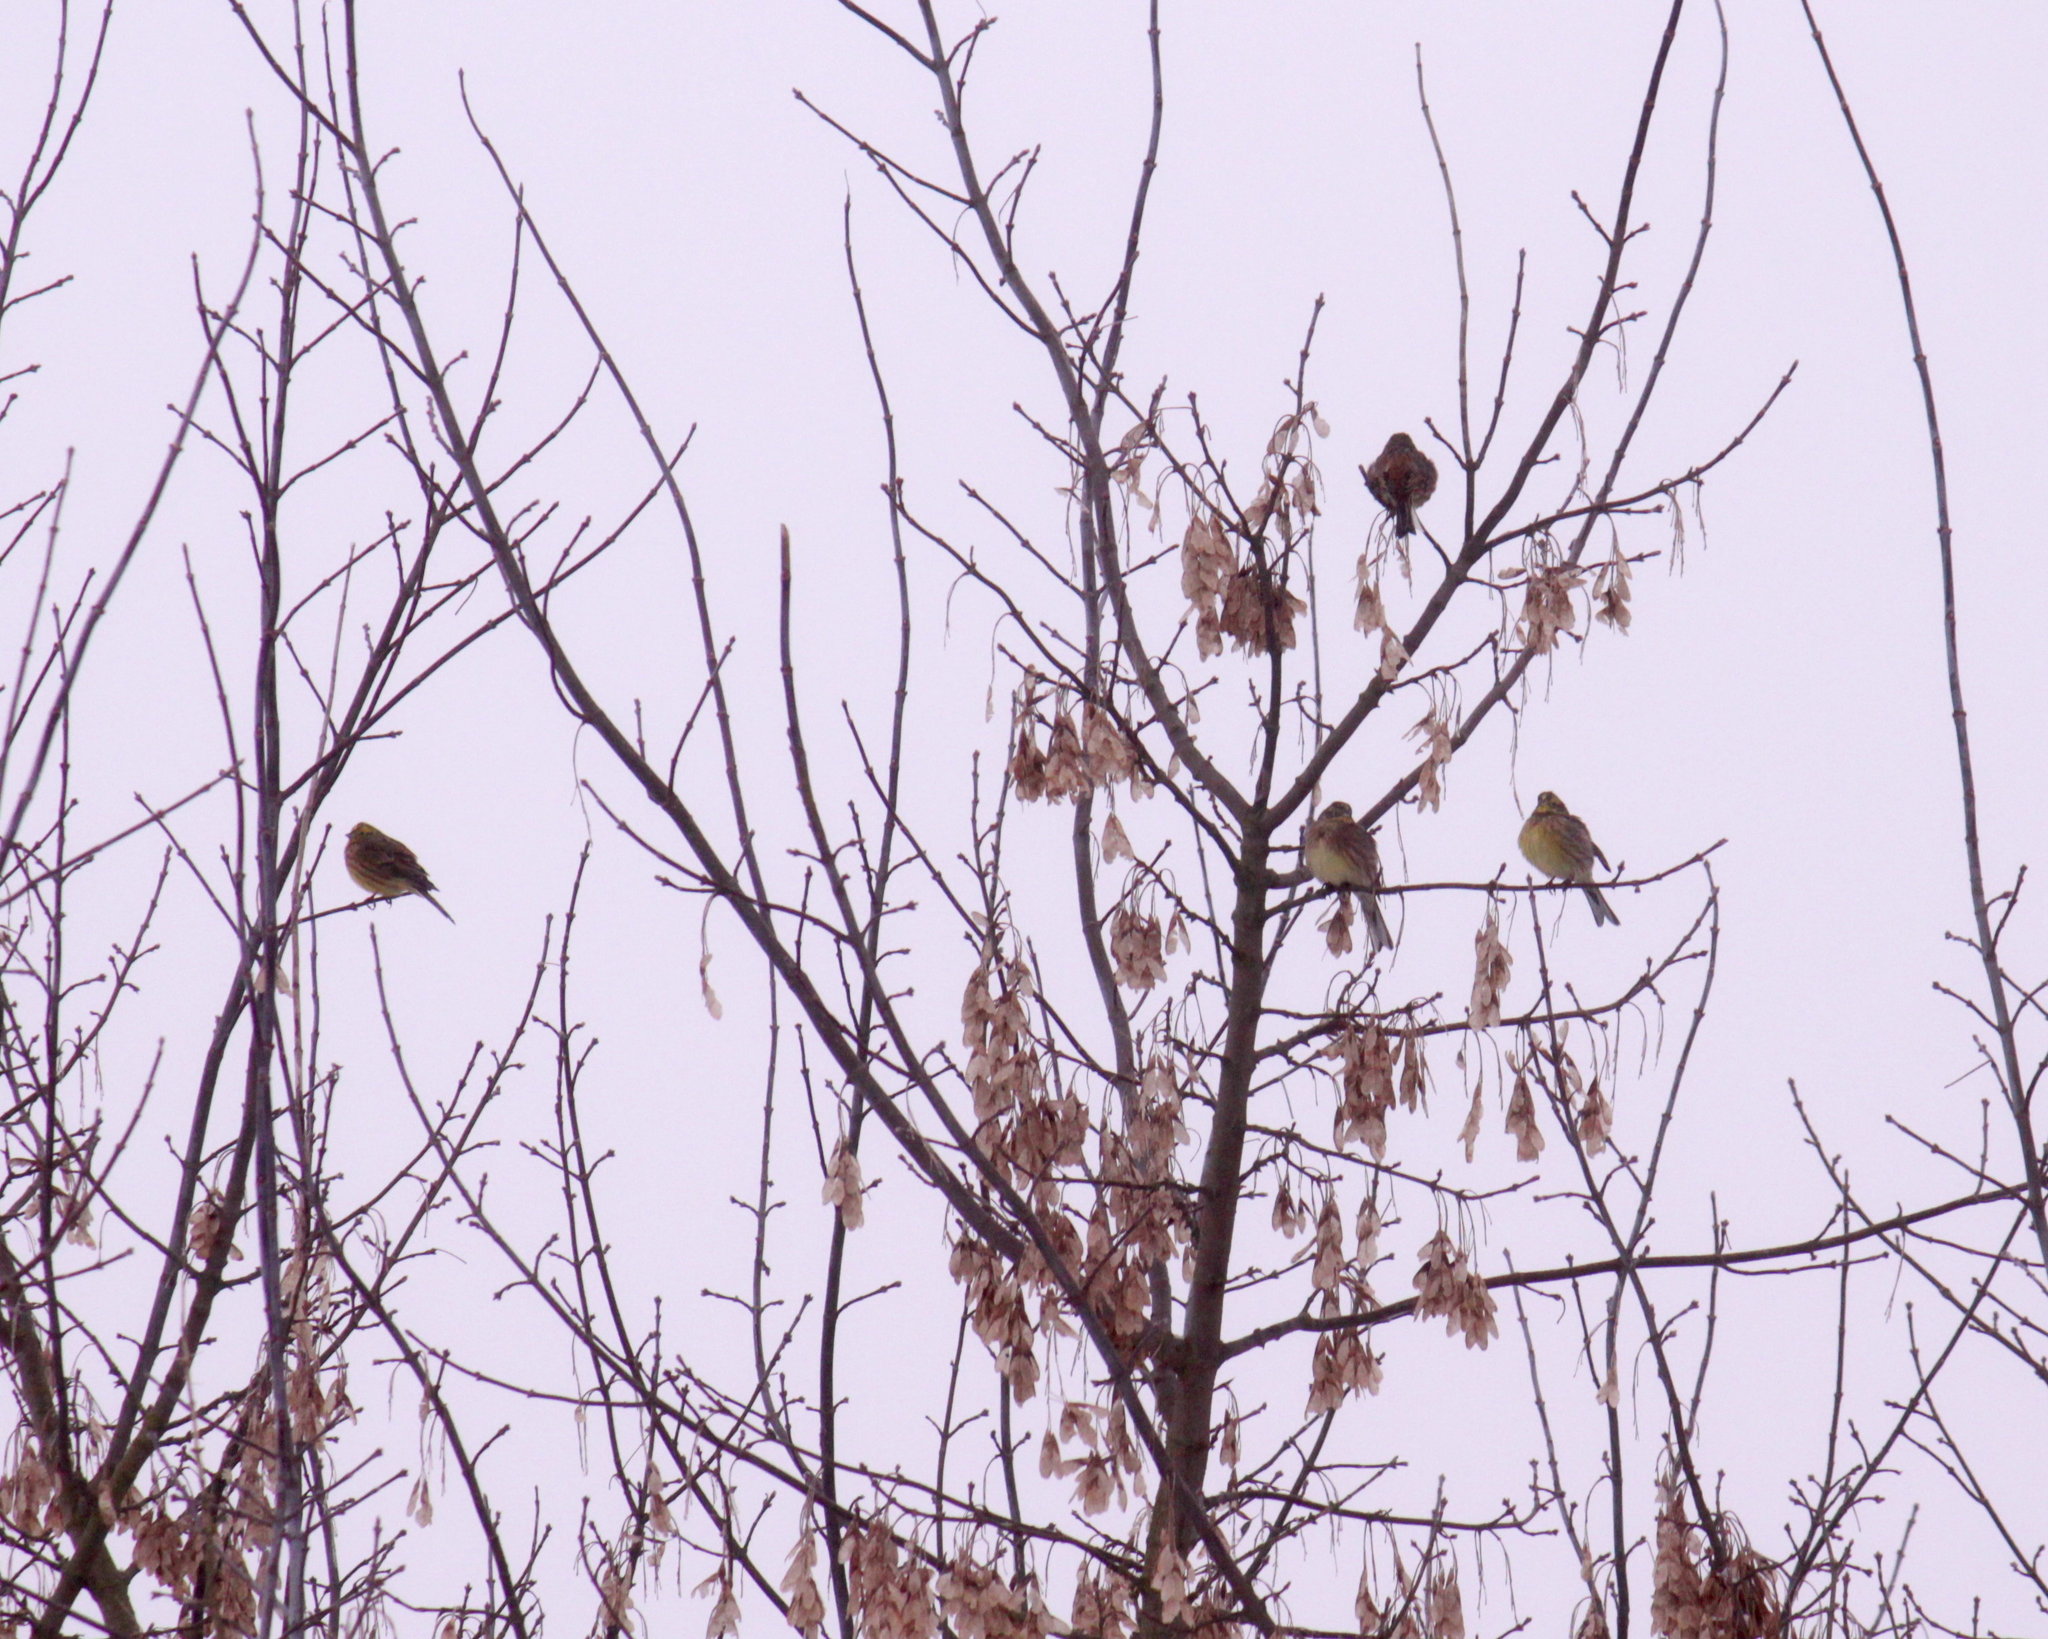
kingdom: Animalia
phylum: Chordata
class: Aves
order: Passeriformes
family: Emberizidae
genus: Emberiza
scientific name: Emberiza citrinella
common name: Yellowhammer
